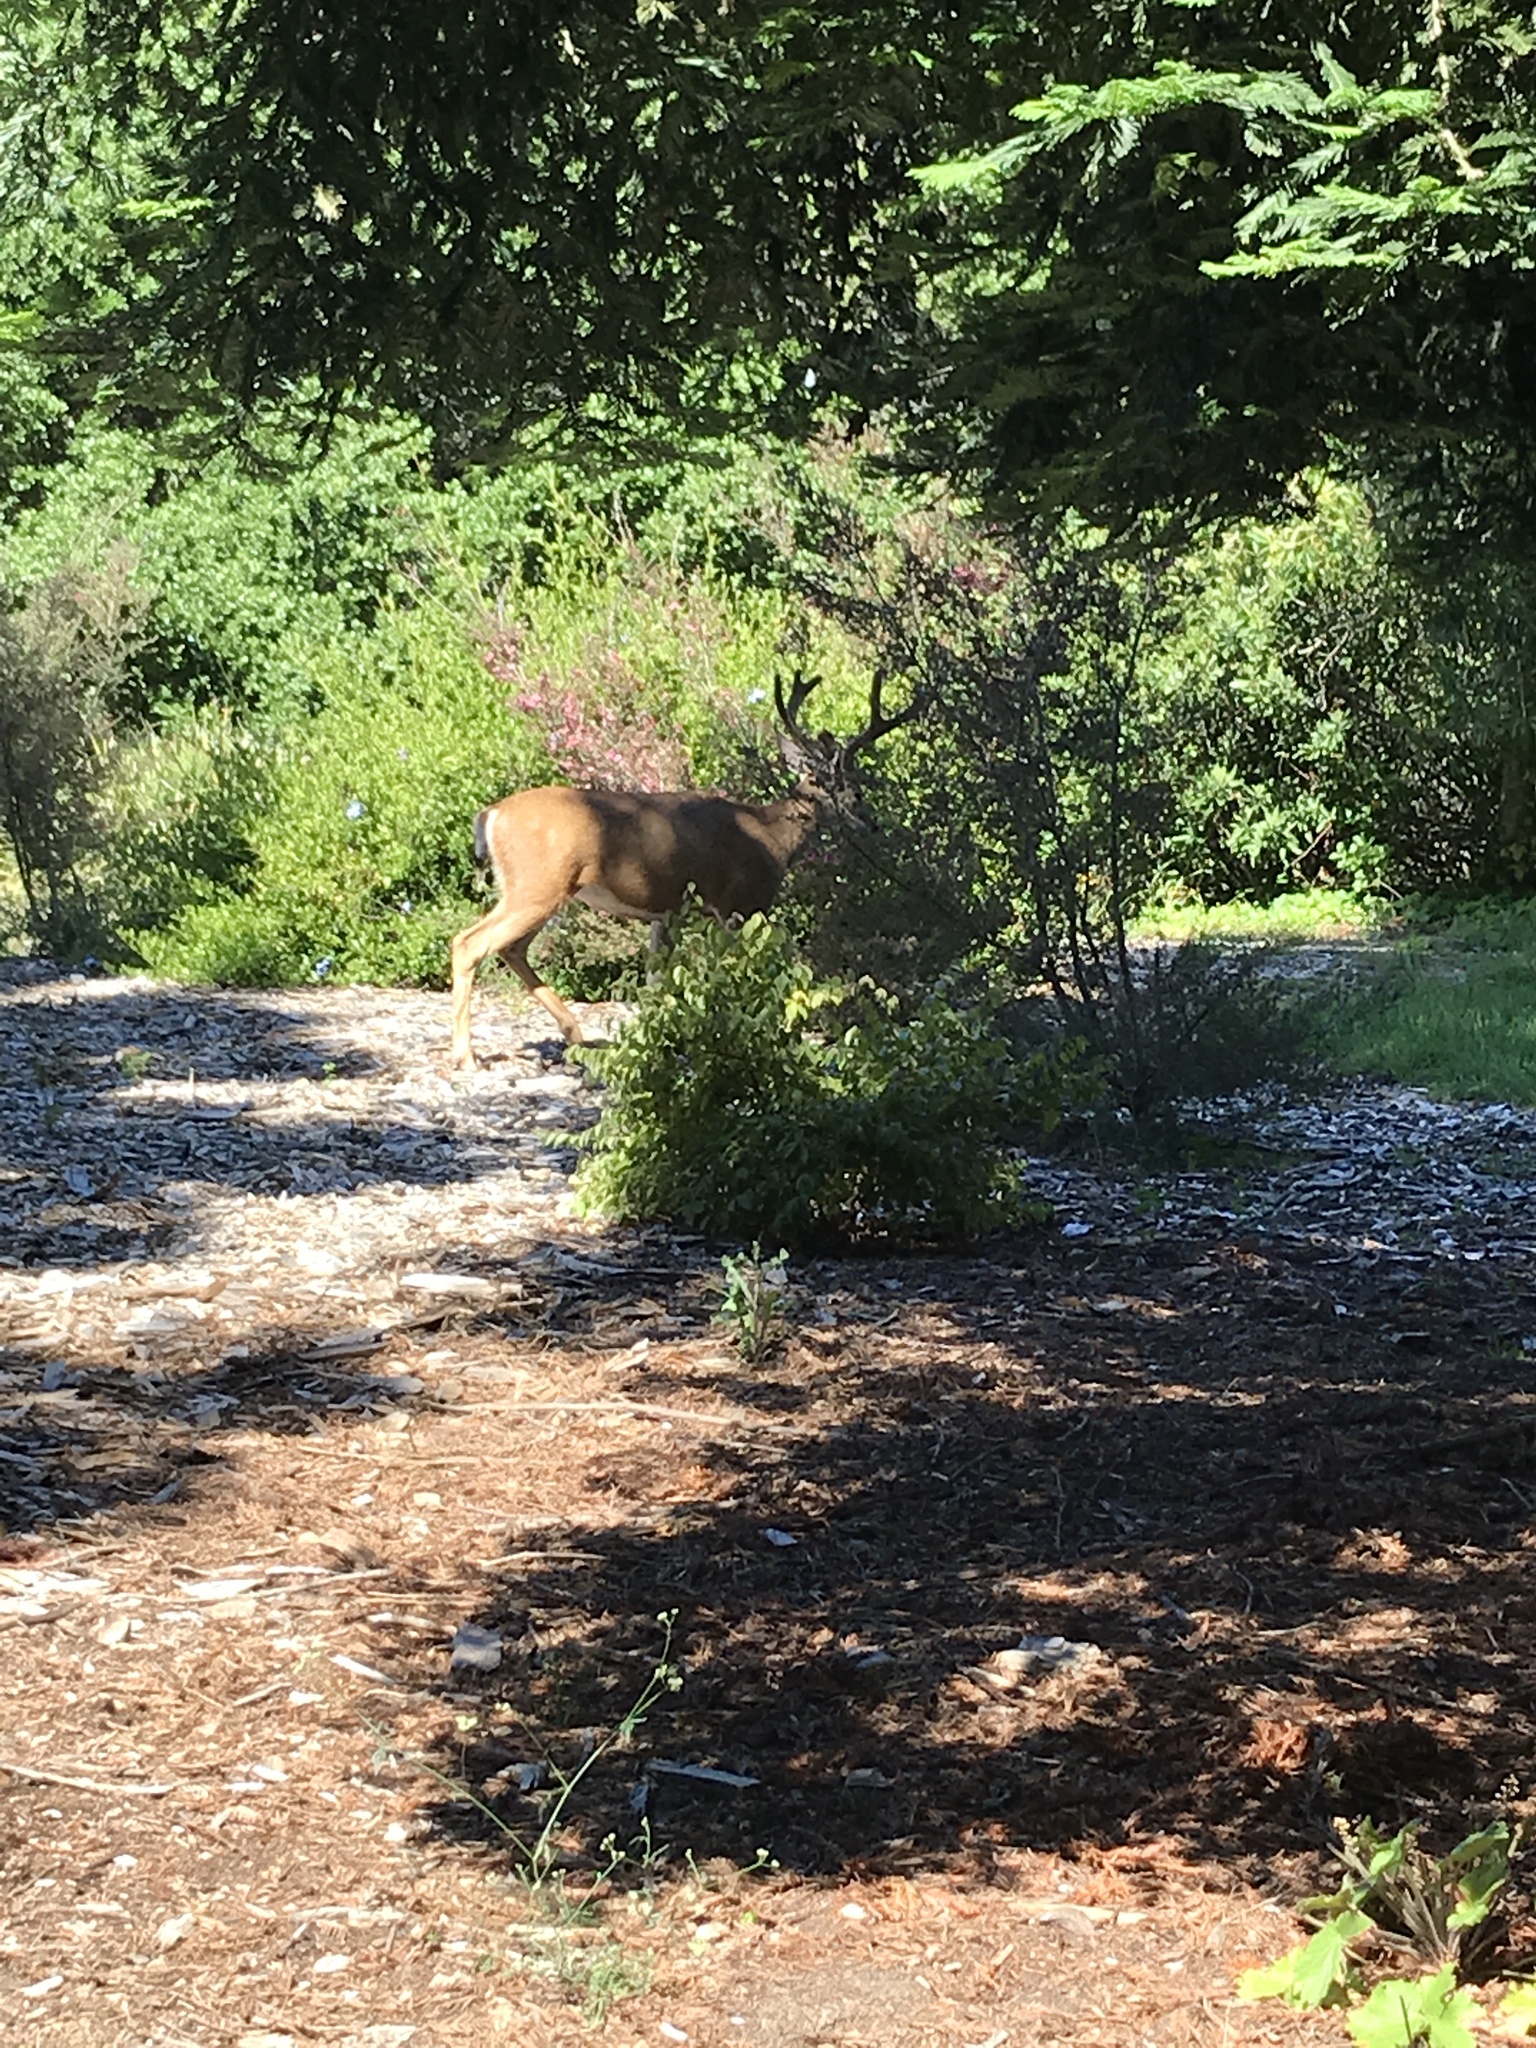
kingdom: Animalia
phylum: Chordata
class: Mammalia
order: Artiodactyla
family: Cervidae
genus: Odocoileus
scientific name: Odocoileus hemionus
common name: Mule deer
